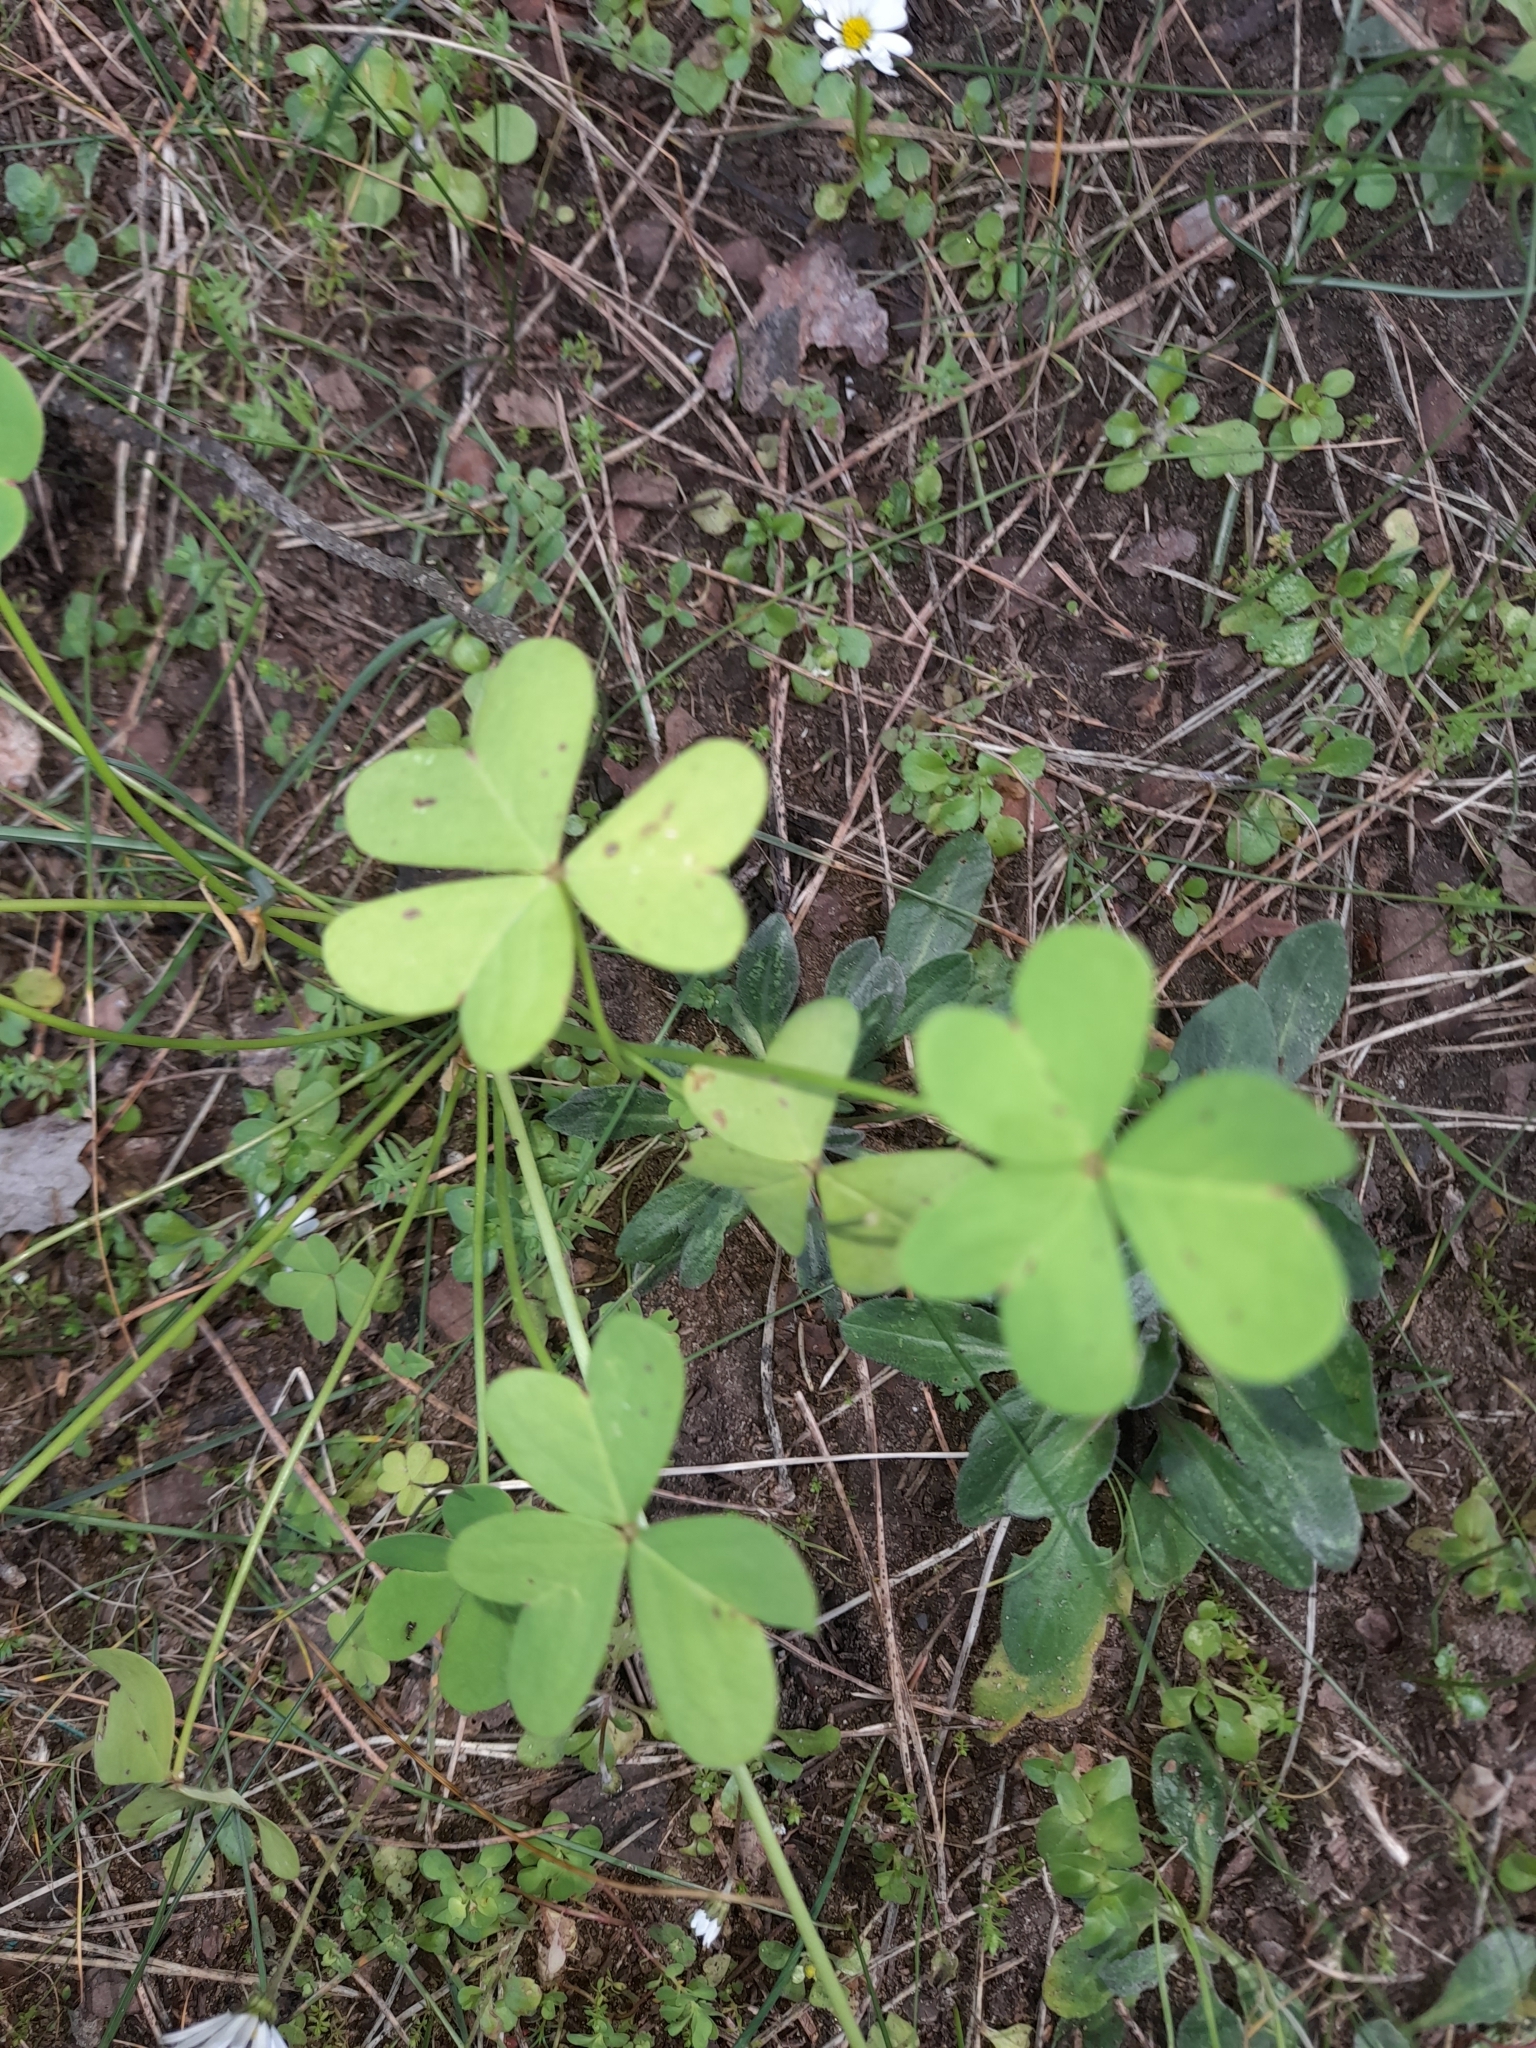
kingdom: Plantae
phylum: Tracheophyta
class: Magnoliopsida
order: Oxalidales
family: Oxalidaceae
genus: Oxalis
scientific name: Oxalis pes-caprae
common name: Bermuda-buttercup
